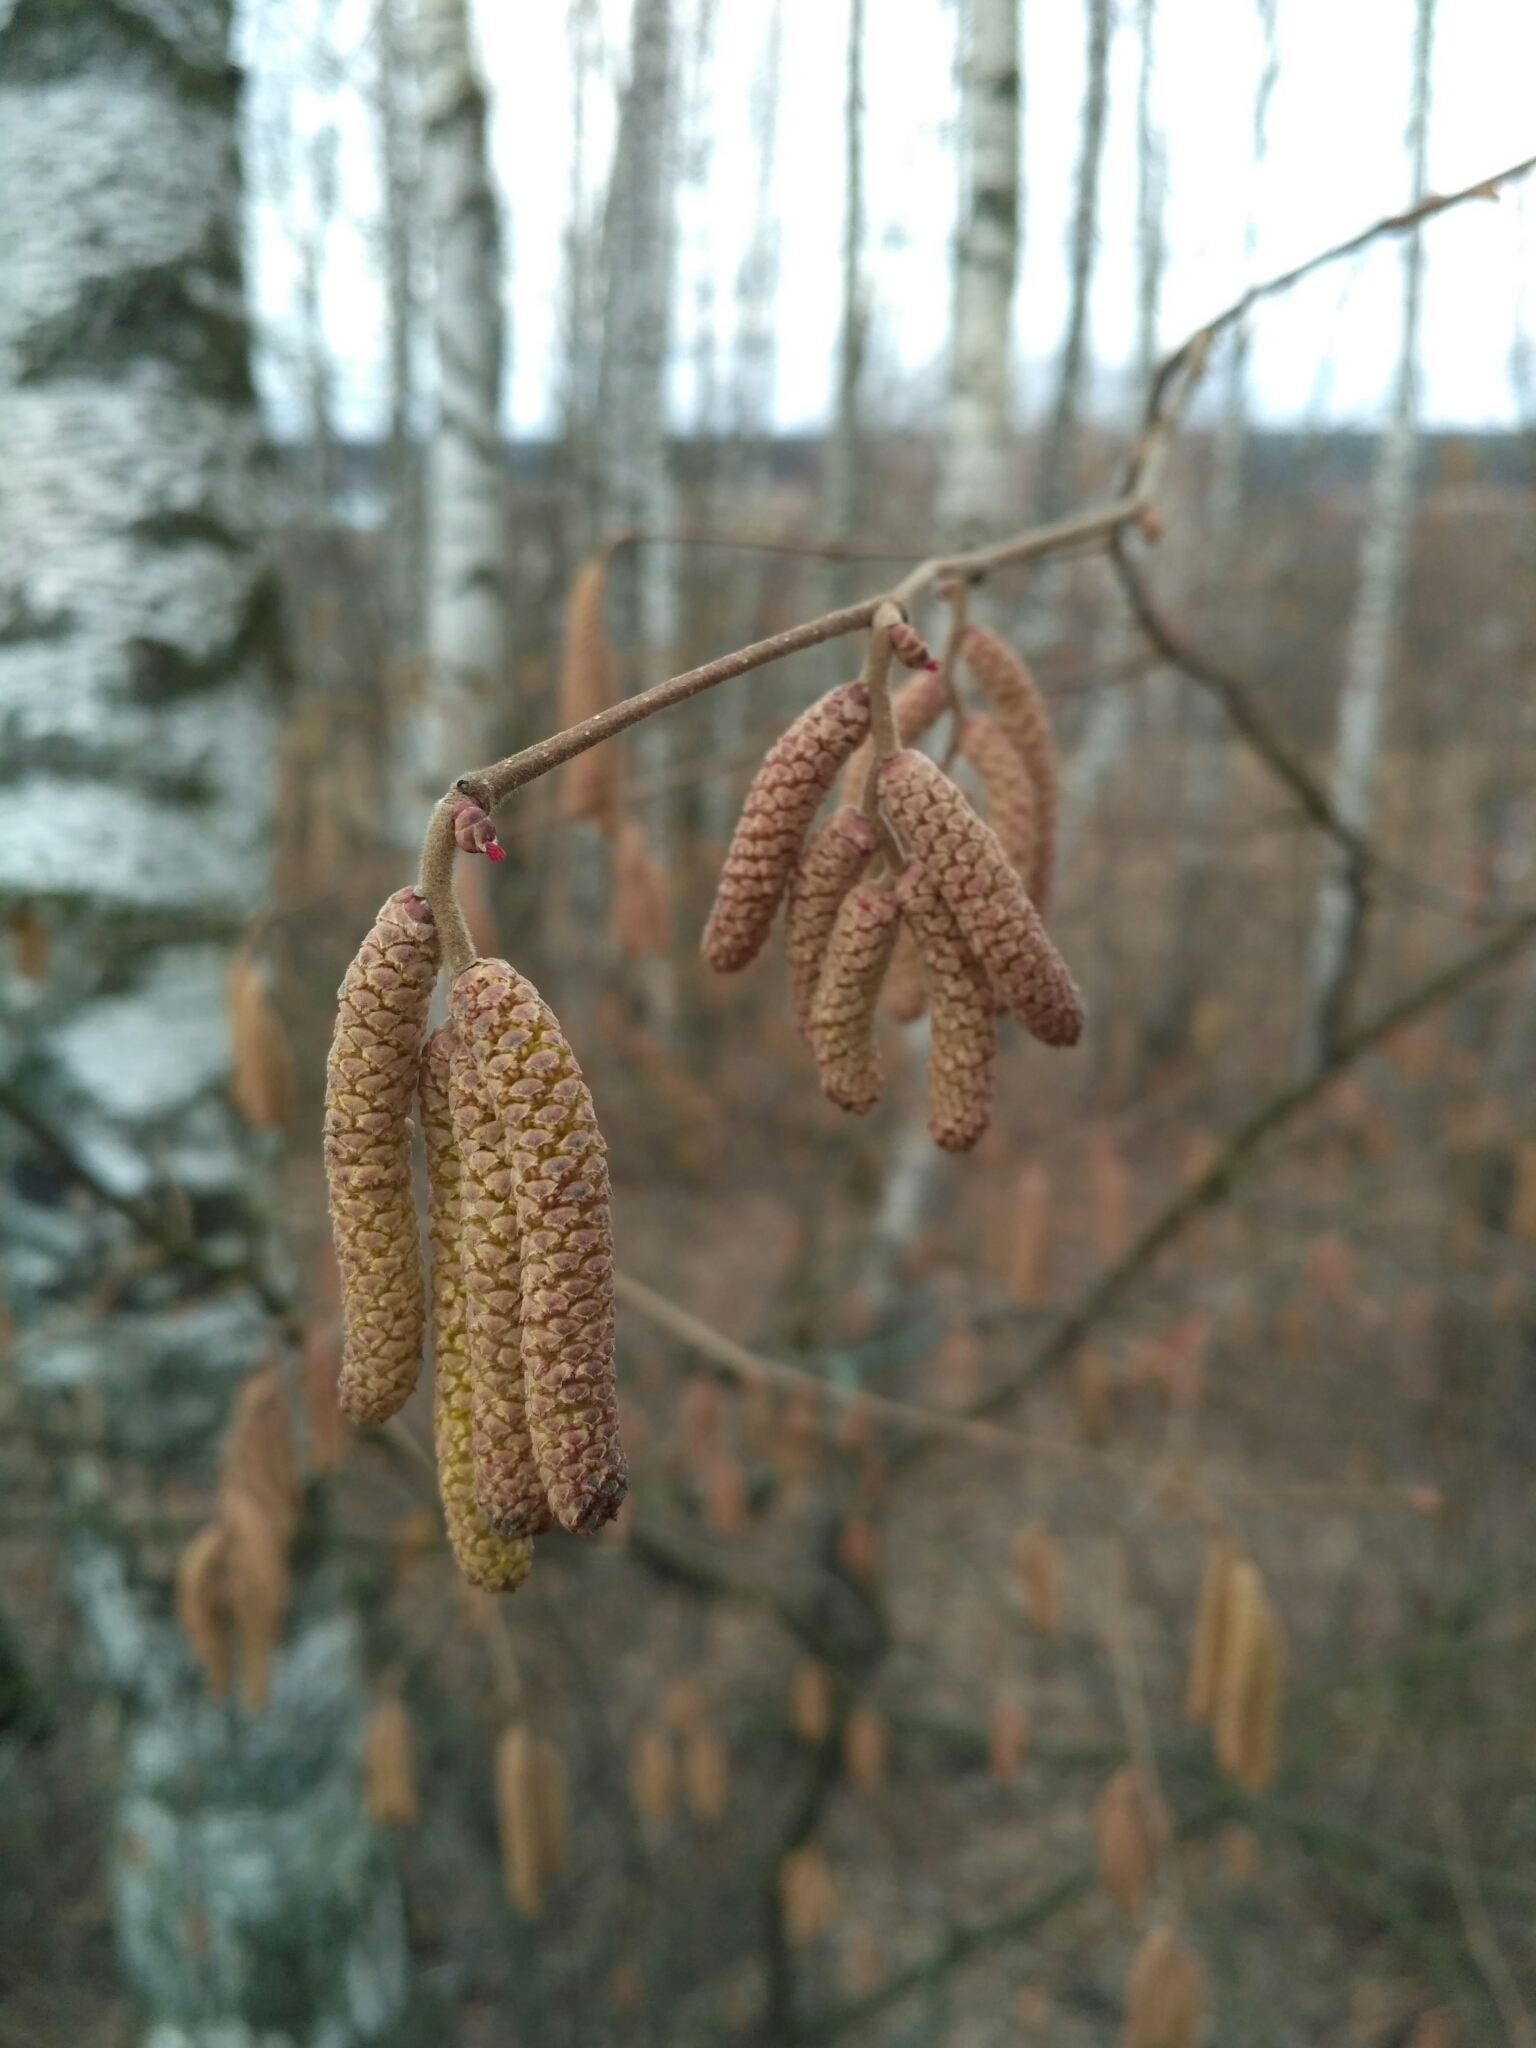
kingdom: Plantae
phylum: Tracheophyta
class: Magnoliopsida
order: Fagales
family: Betulaceae
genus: Corylus
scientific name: Corylus avellana
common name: European hazel
